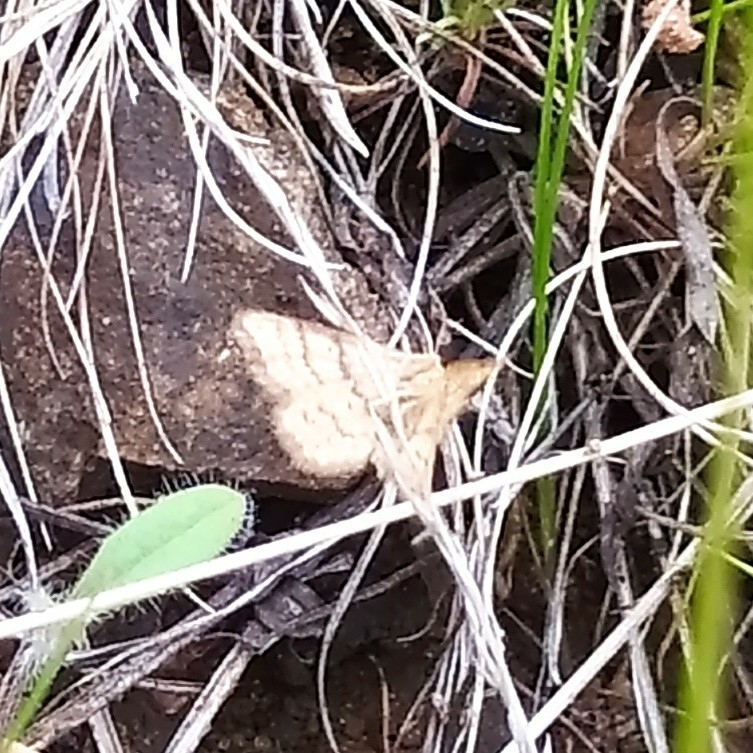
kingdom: Animalia
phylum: Arthropoda
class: Insecta
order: Lepidoptera
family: Geometridae
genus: Idaea
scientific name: Idaea aureolaria
